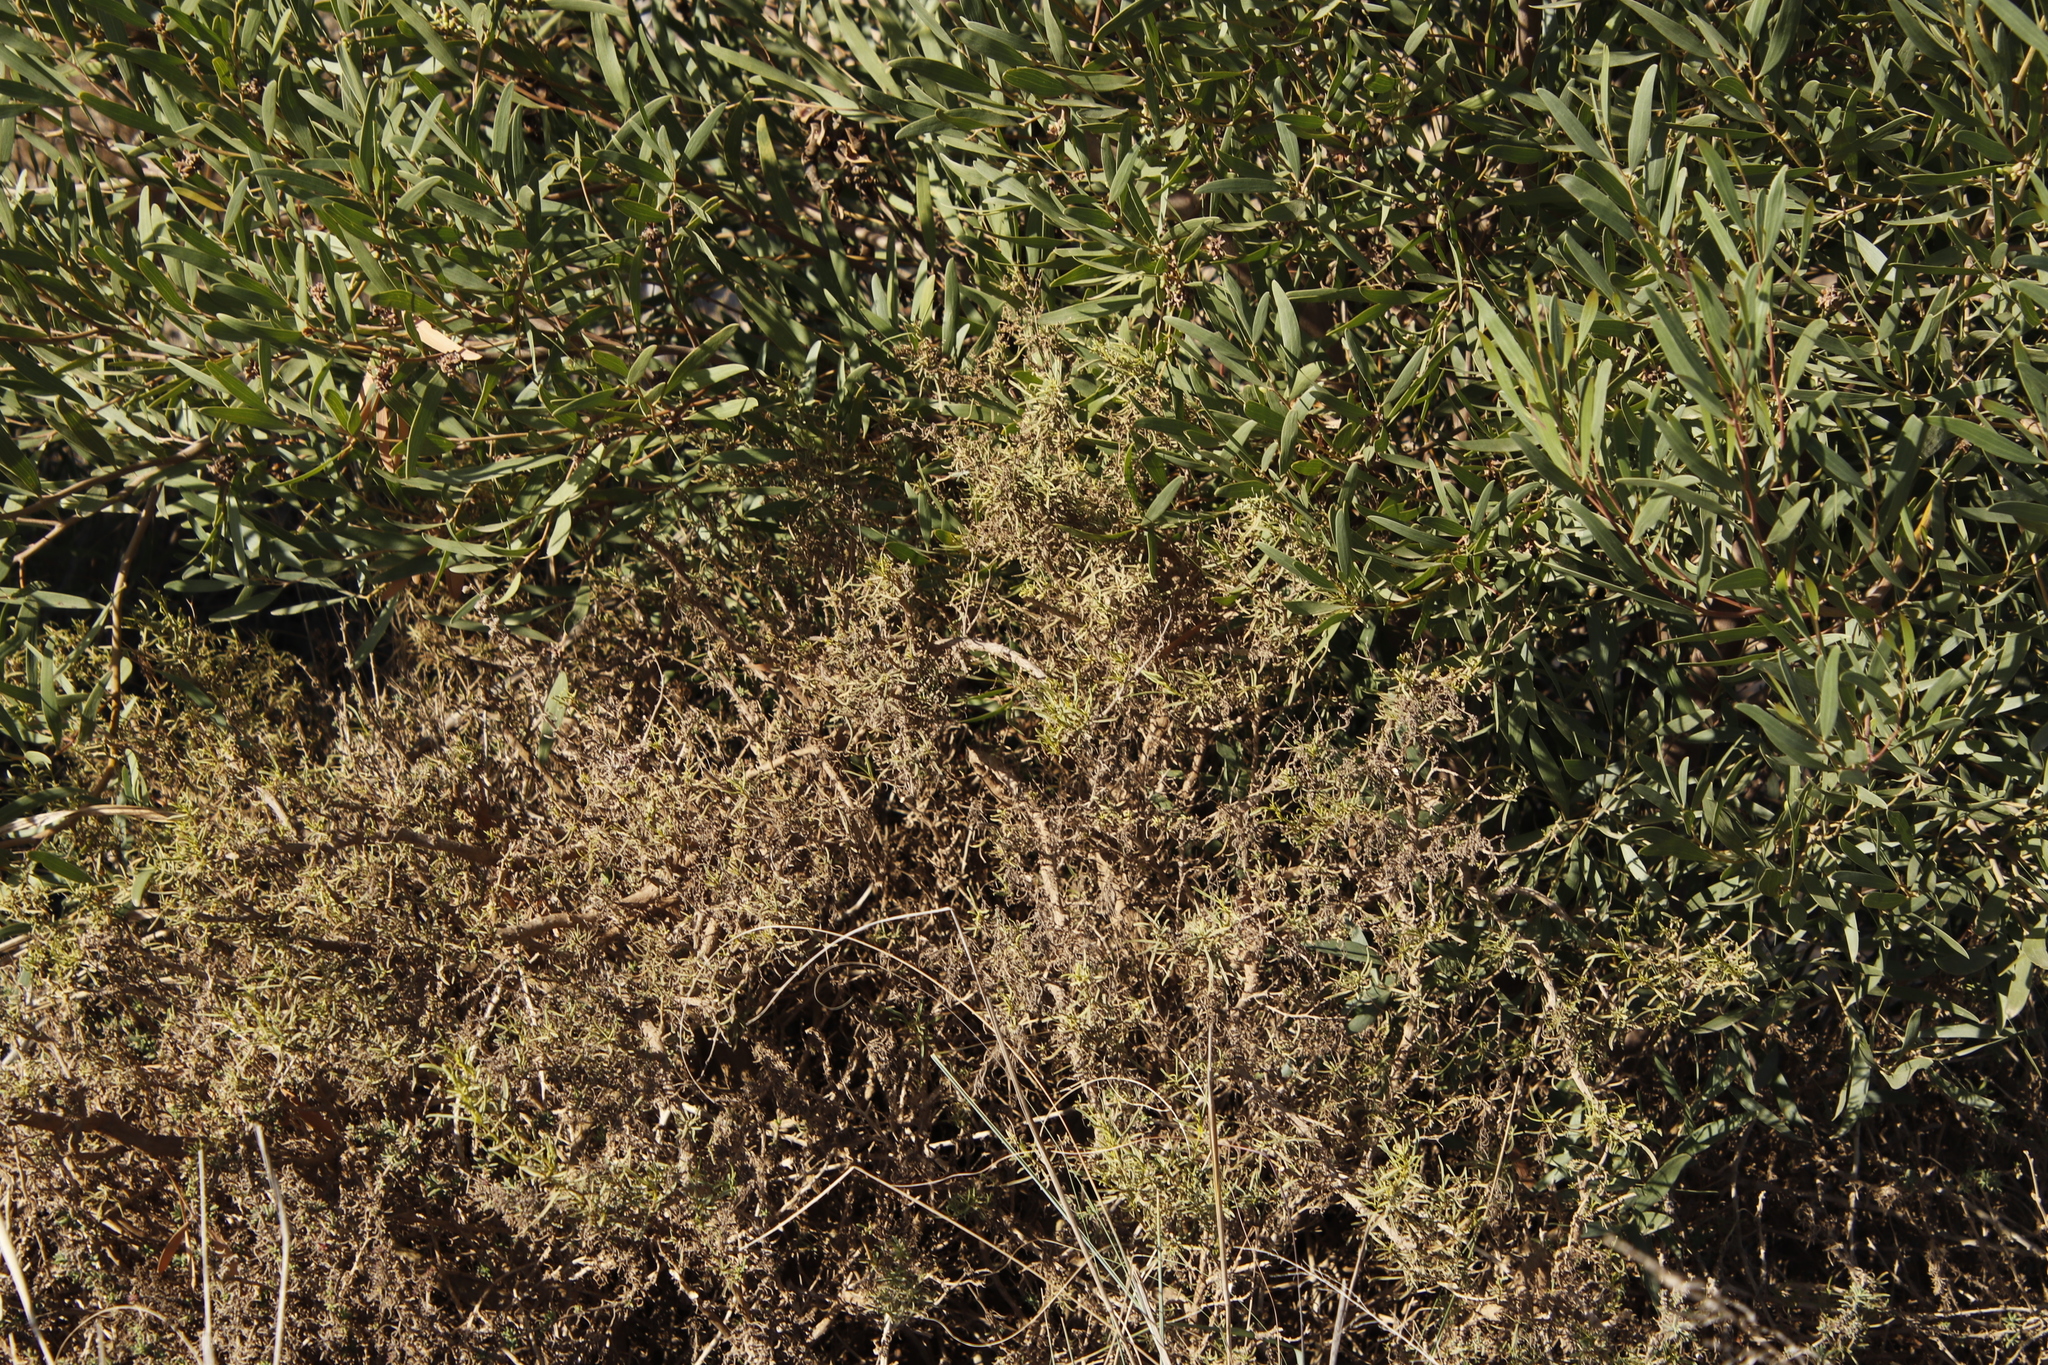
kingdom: Plantae
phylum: Tracheophyta
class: Magnoliopsida
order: Caryophyllales
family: Aizoaceae
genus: Aizoon
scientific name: Aizoon africanum
